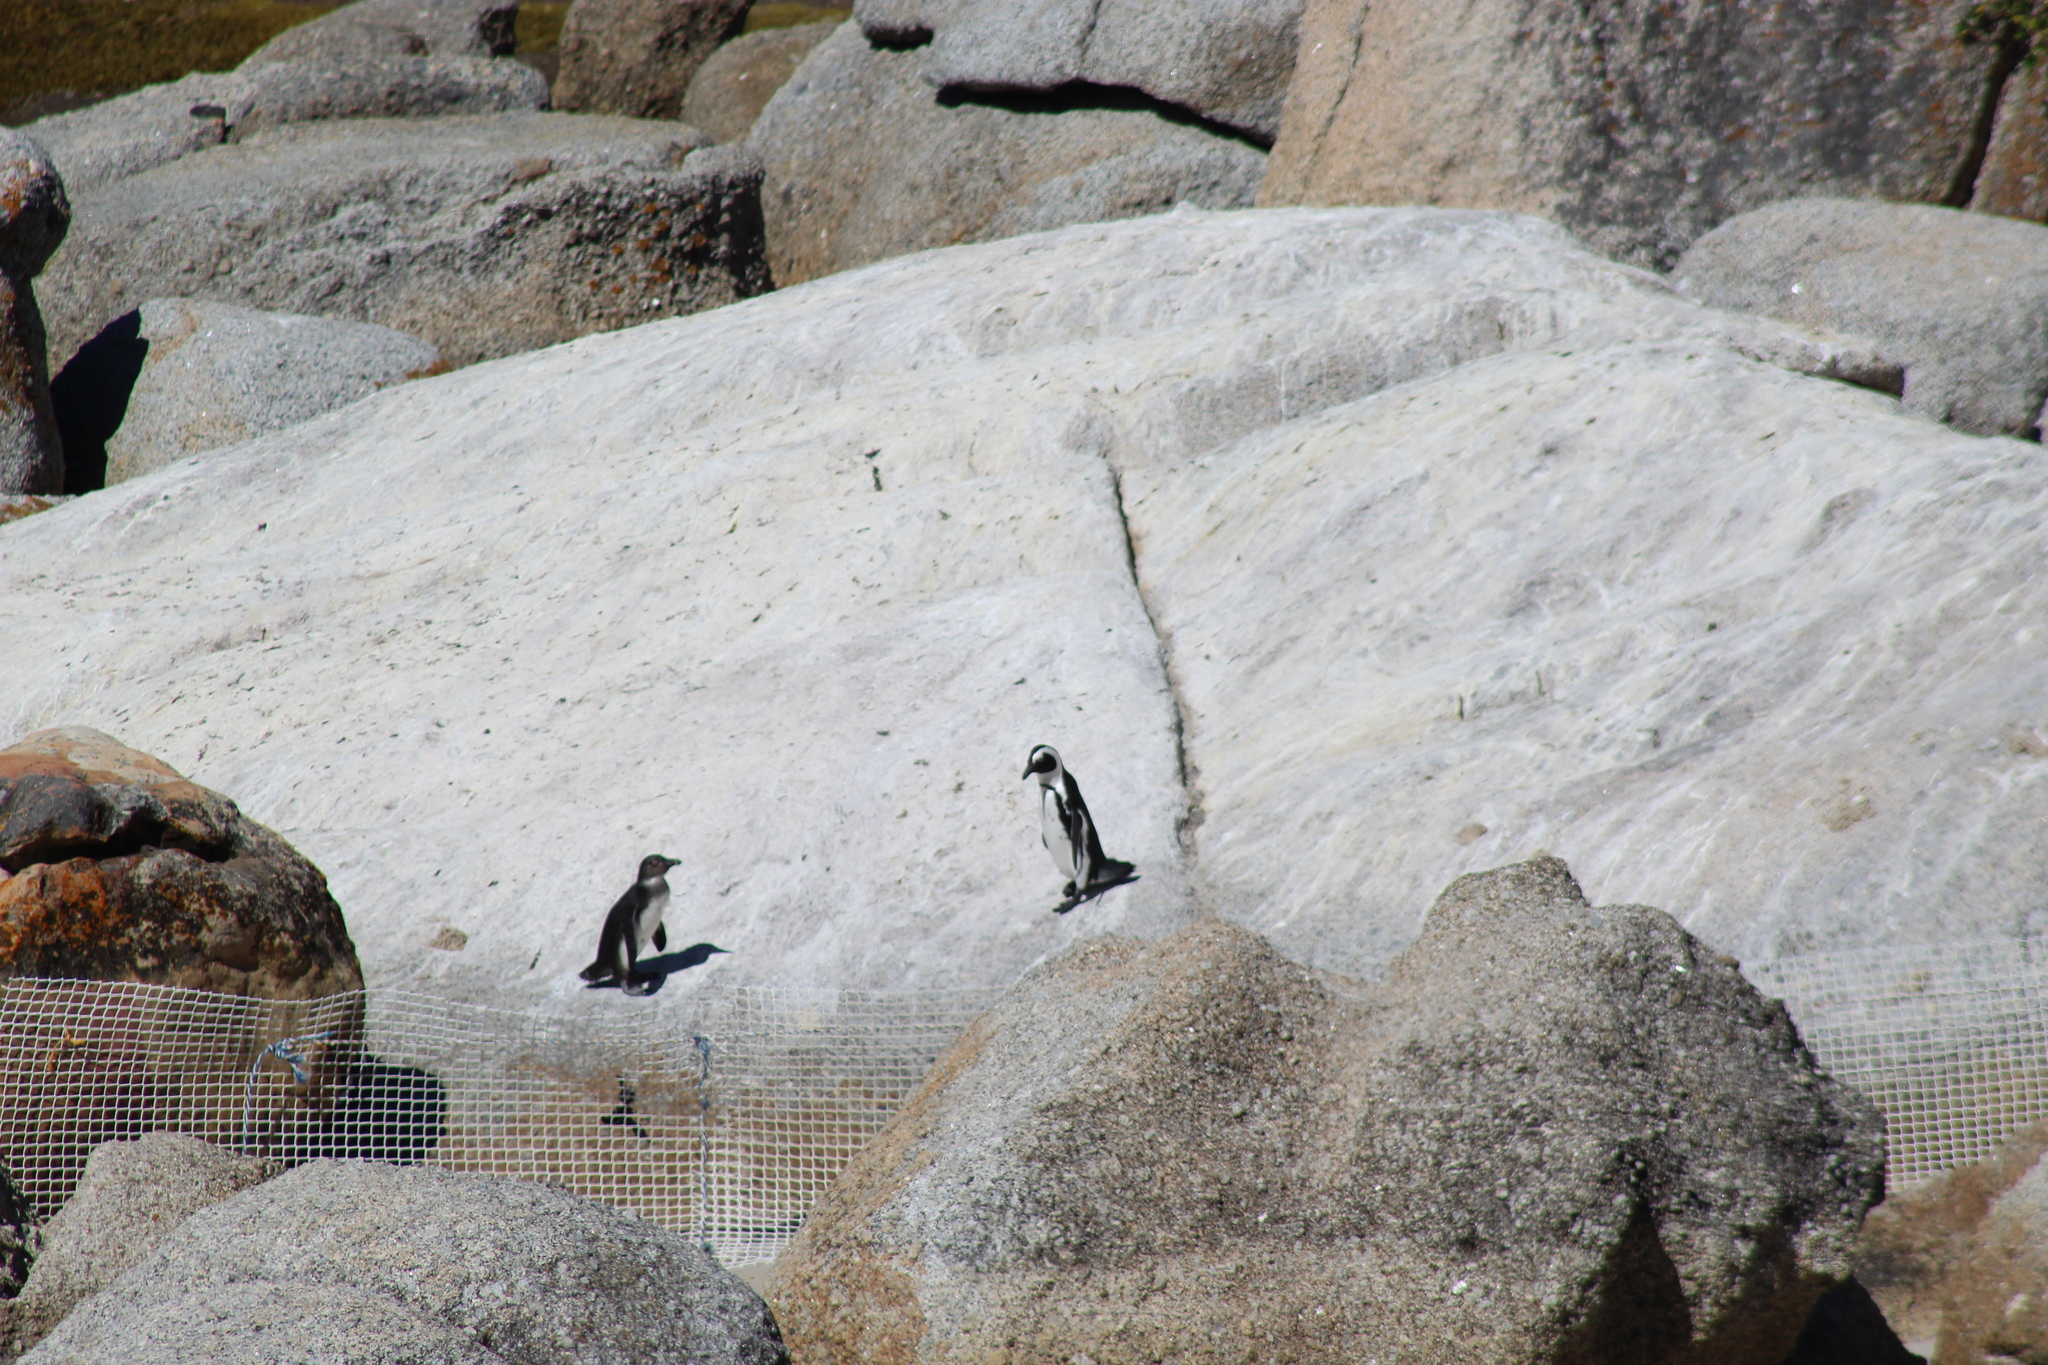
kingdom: Animalia
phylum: Chordata
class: Aves
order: Sphenisciformes
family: Spheniscidae
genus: Spheniscus
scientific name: Spheniscus demersus
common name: African penguin
